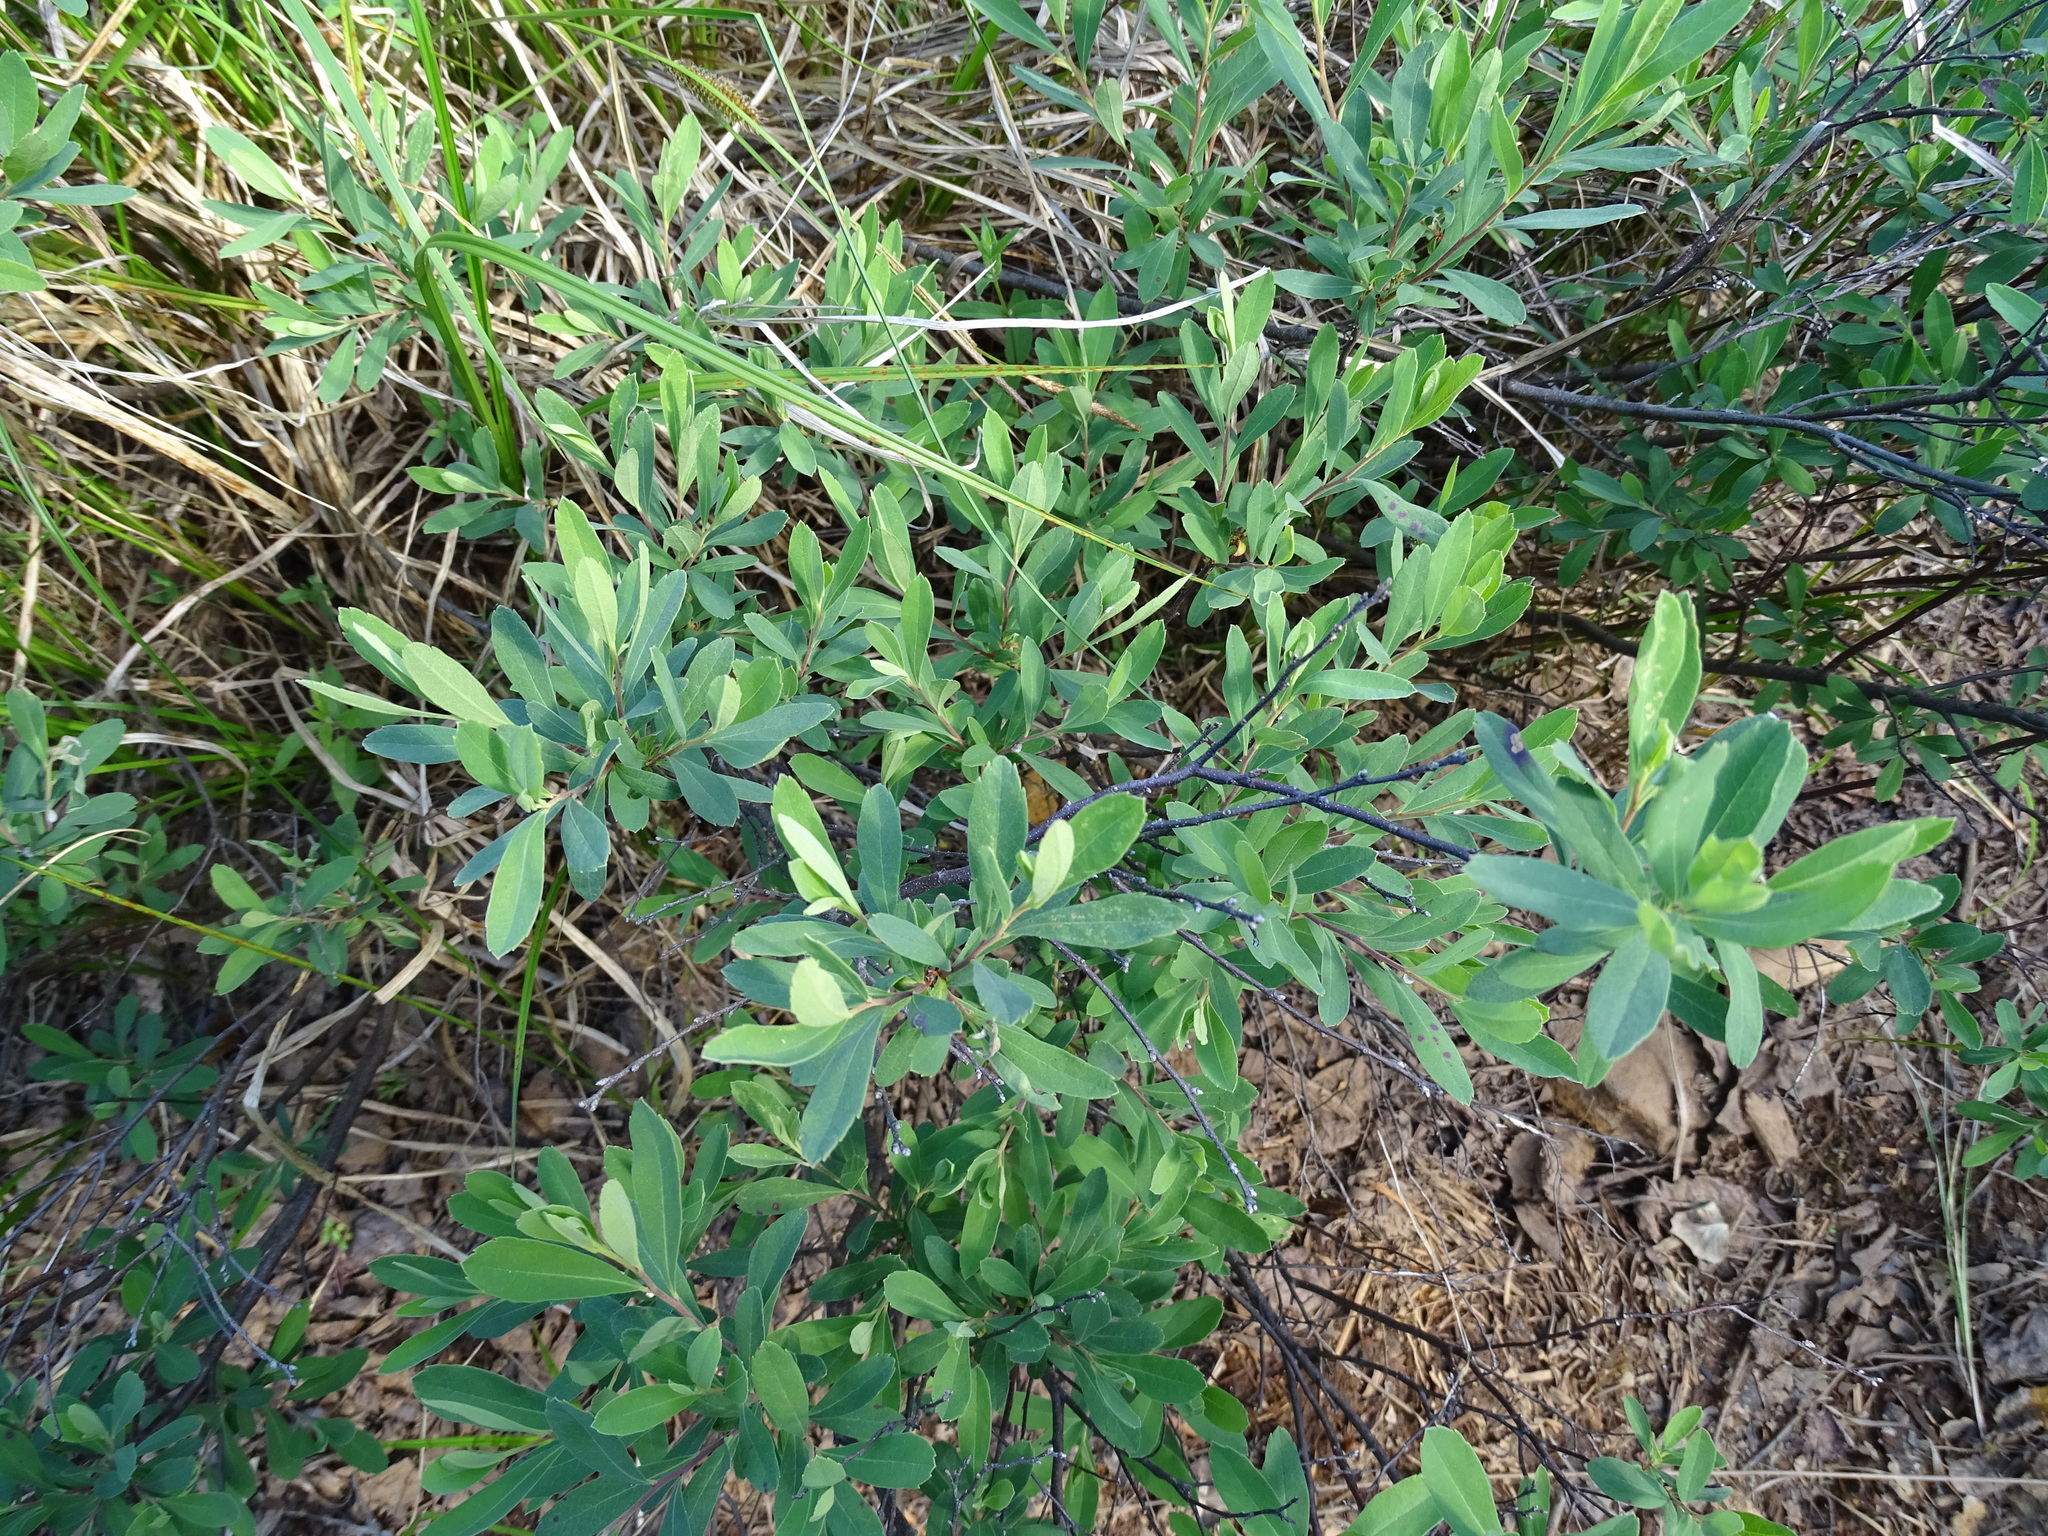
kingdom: Plantae
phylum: Tracheophyta
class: Magnoliopsida
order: Fagales
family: Myricaceae
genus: Myrica
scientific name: Myrica gale
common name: Sweet gale
